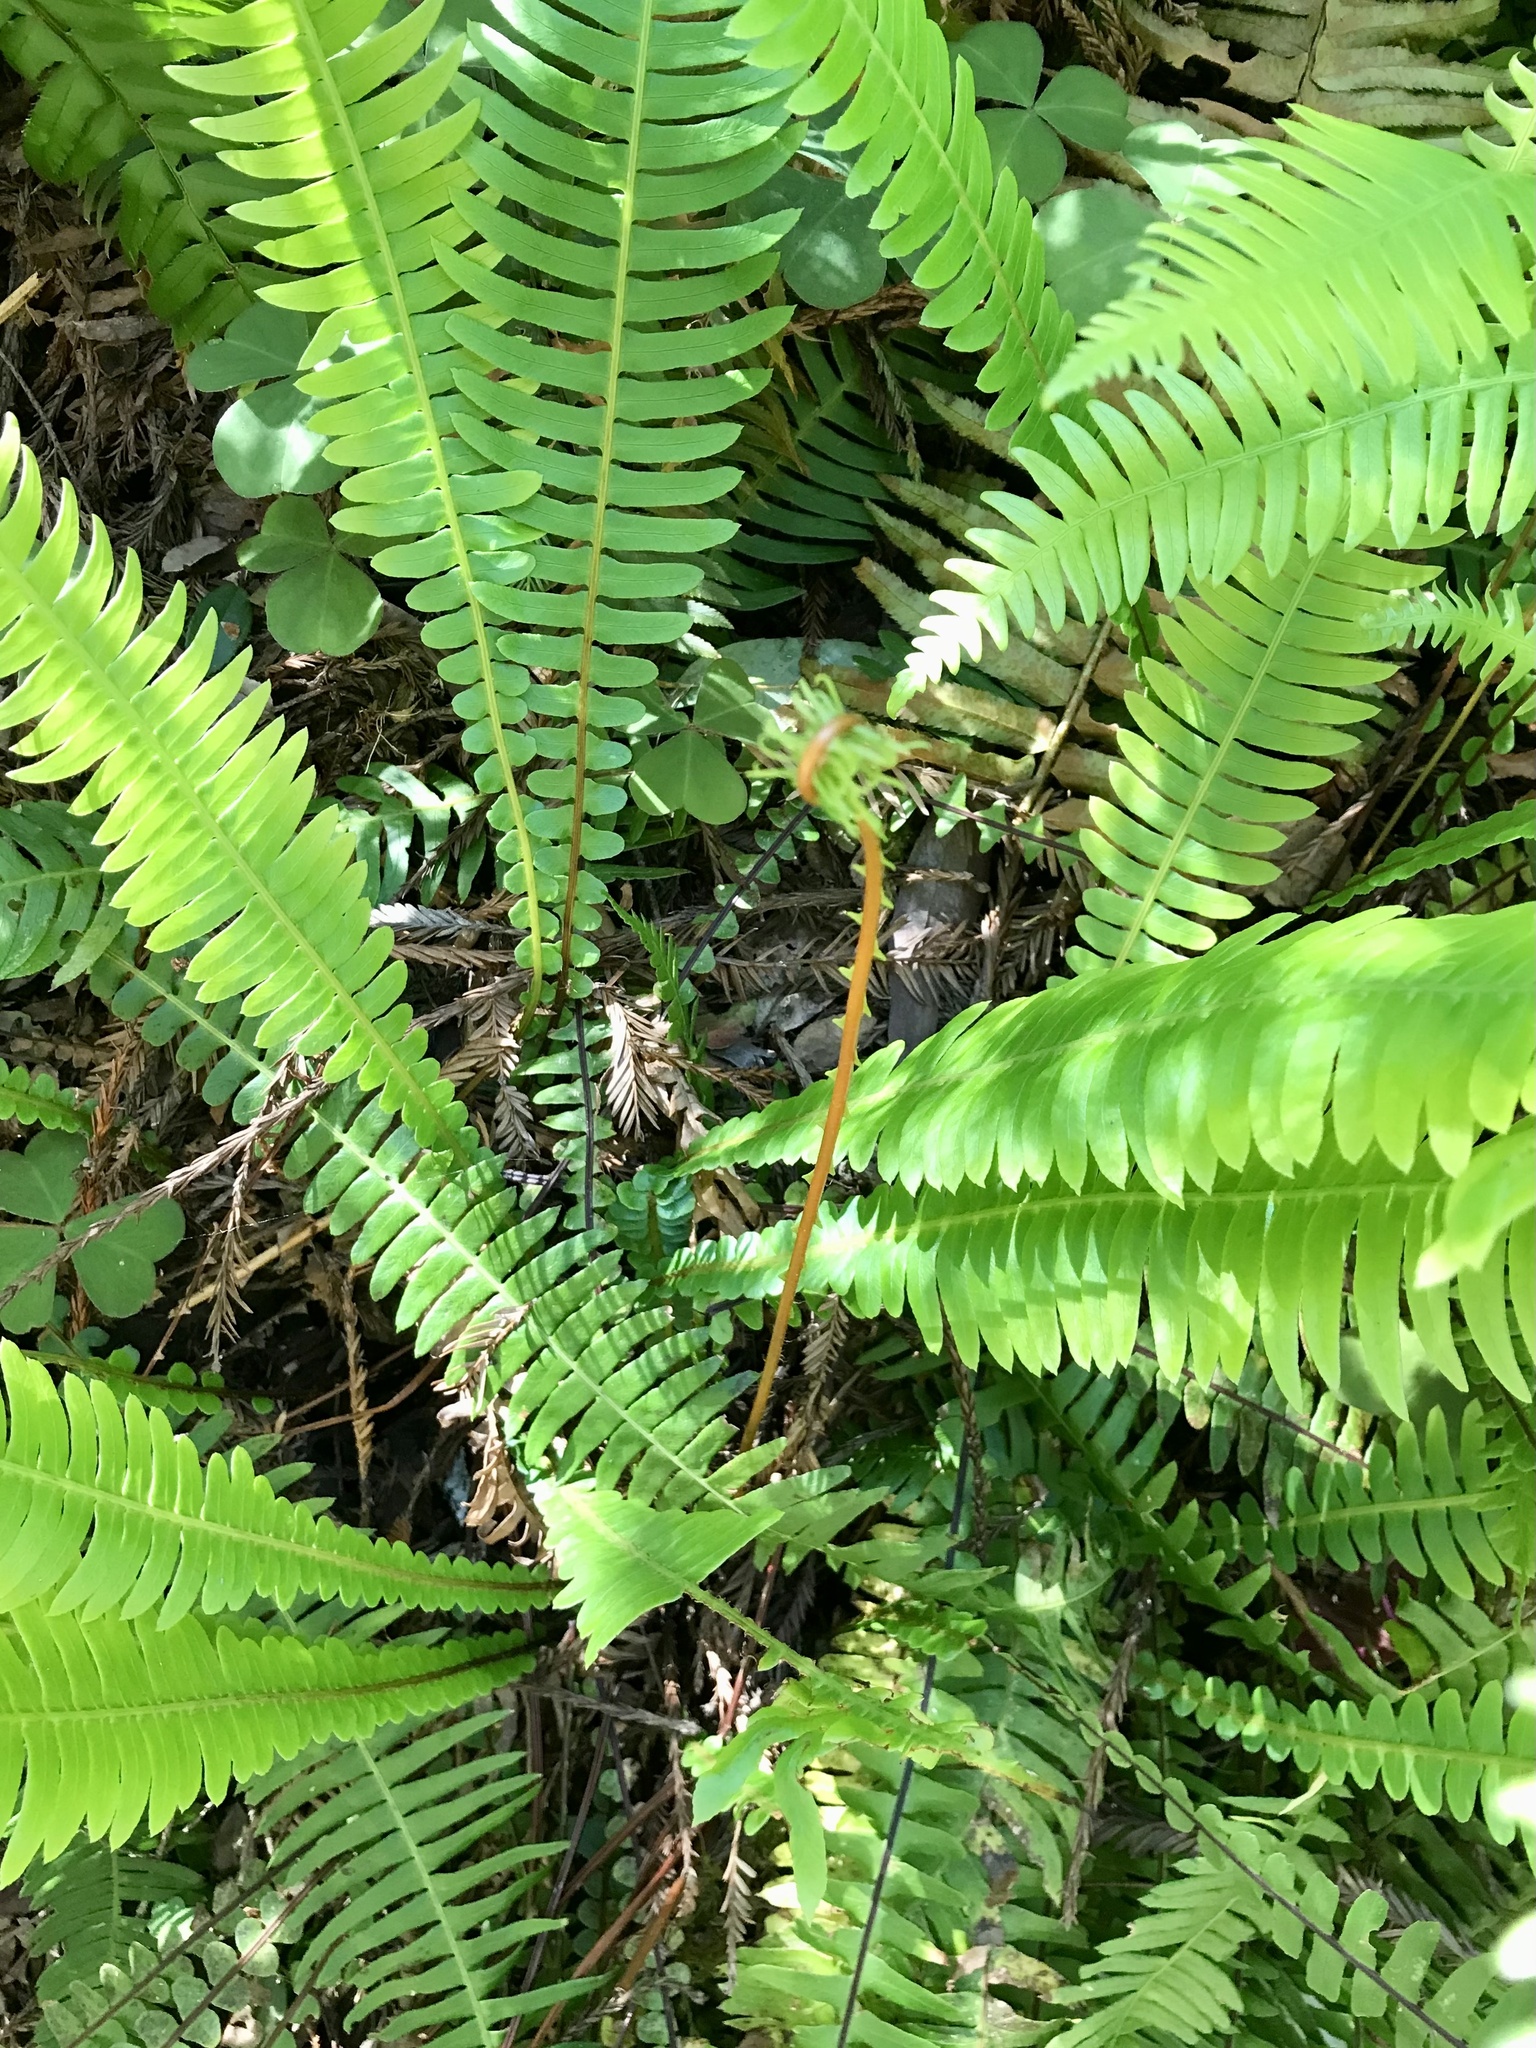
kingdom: Plantae
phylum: Tracheophyta
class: Polypodiopsida
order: Polypodiales
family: Blechnaceae
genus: Struthiopteris
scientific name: Struthiopteris spicant
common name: Deer fern
